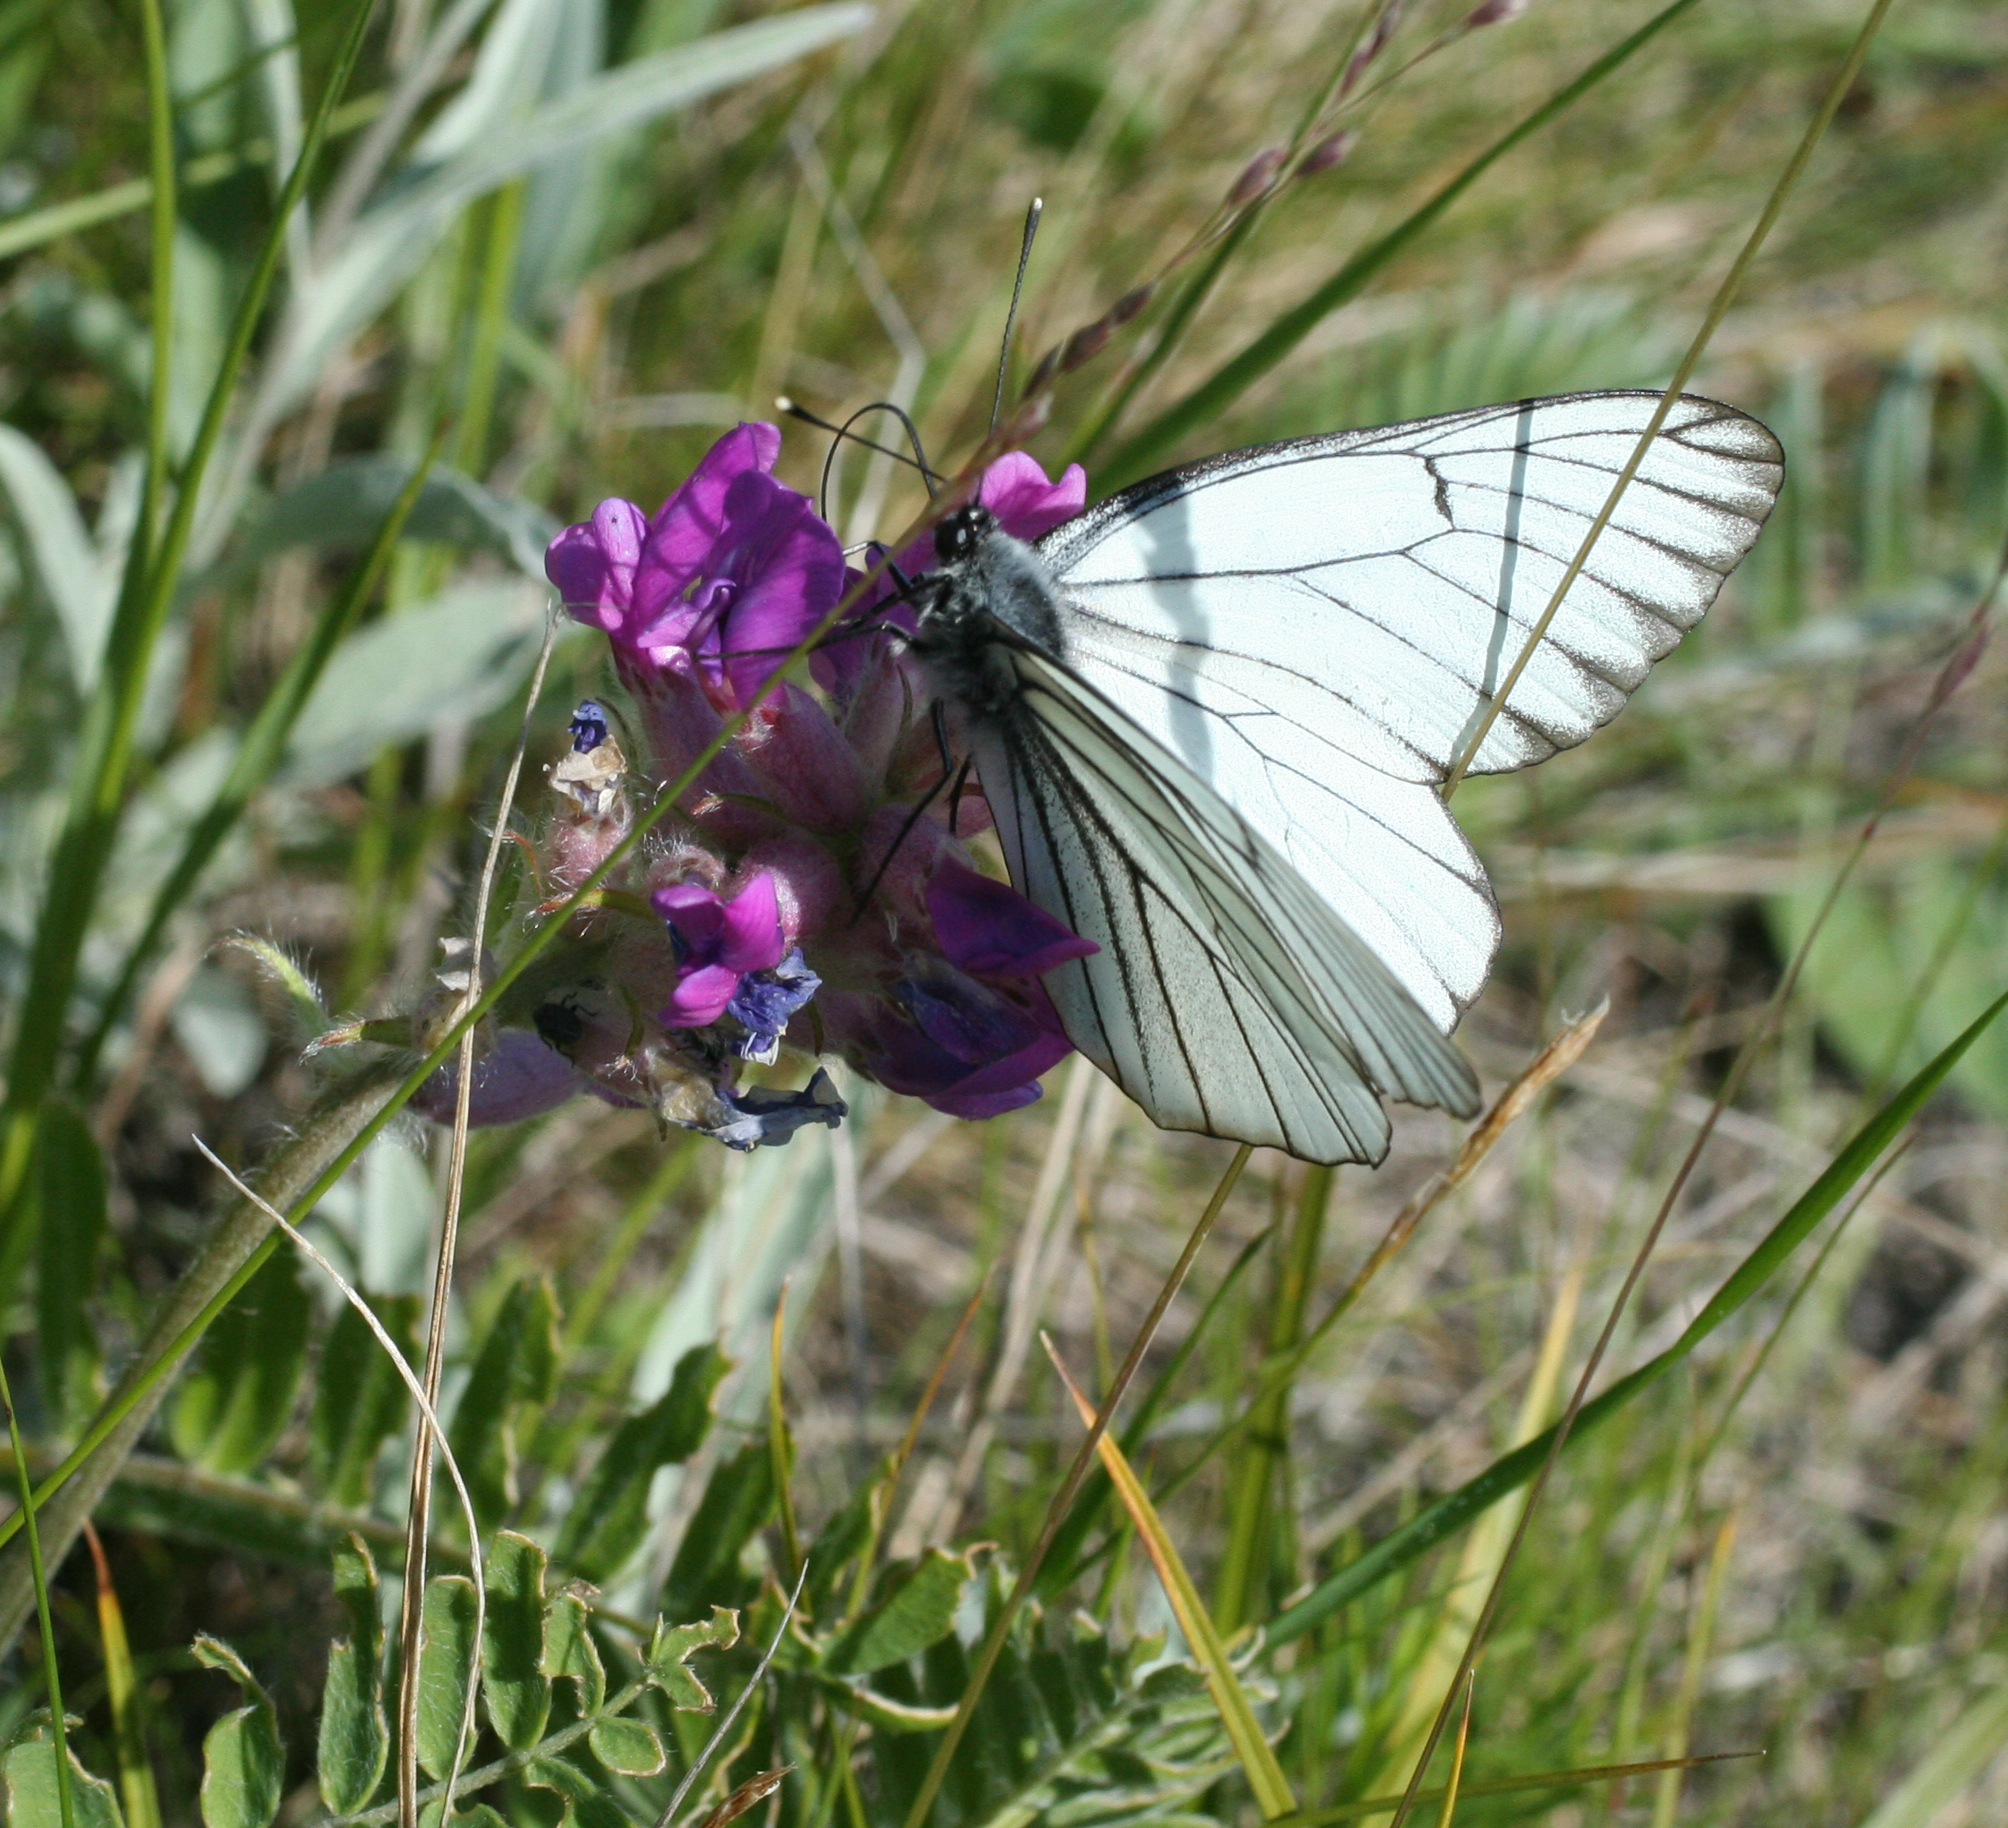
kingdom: Animalia
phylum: Arthropoda
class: Insecta
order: Lepidoptera
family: Pieridae
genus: Aporia
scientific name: Aporia crataegi
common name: Black-veined white
